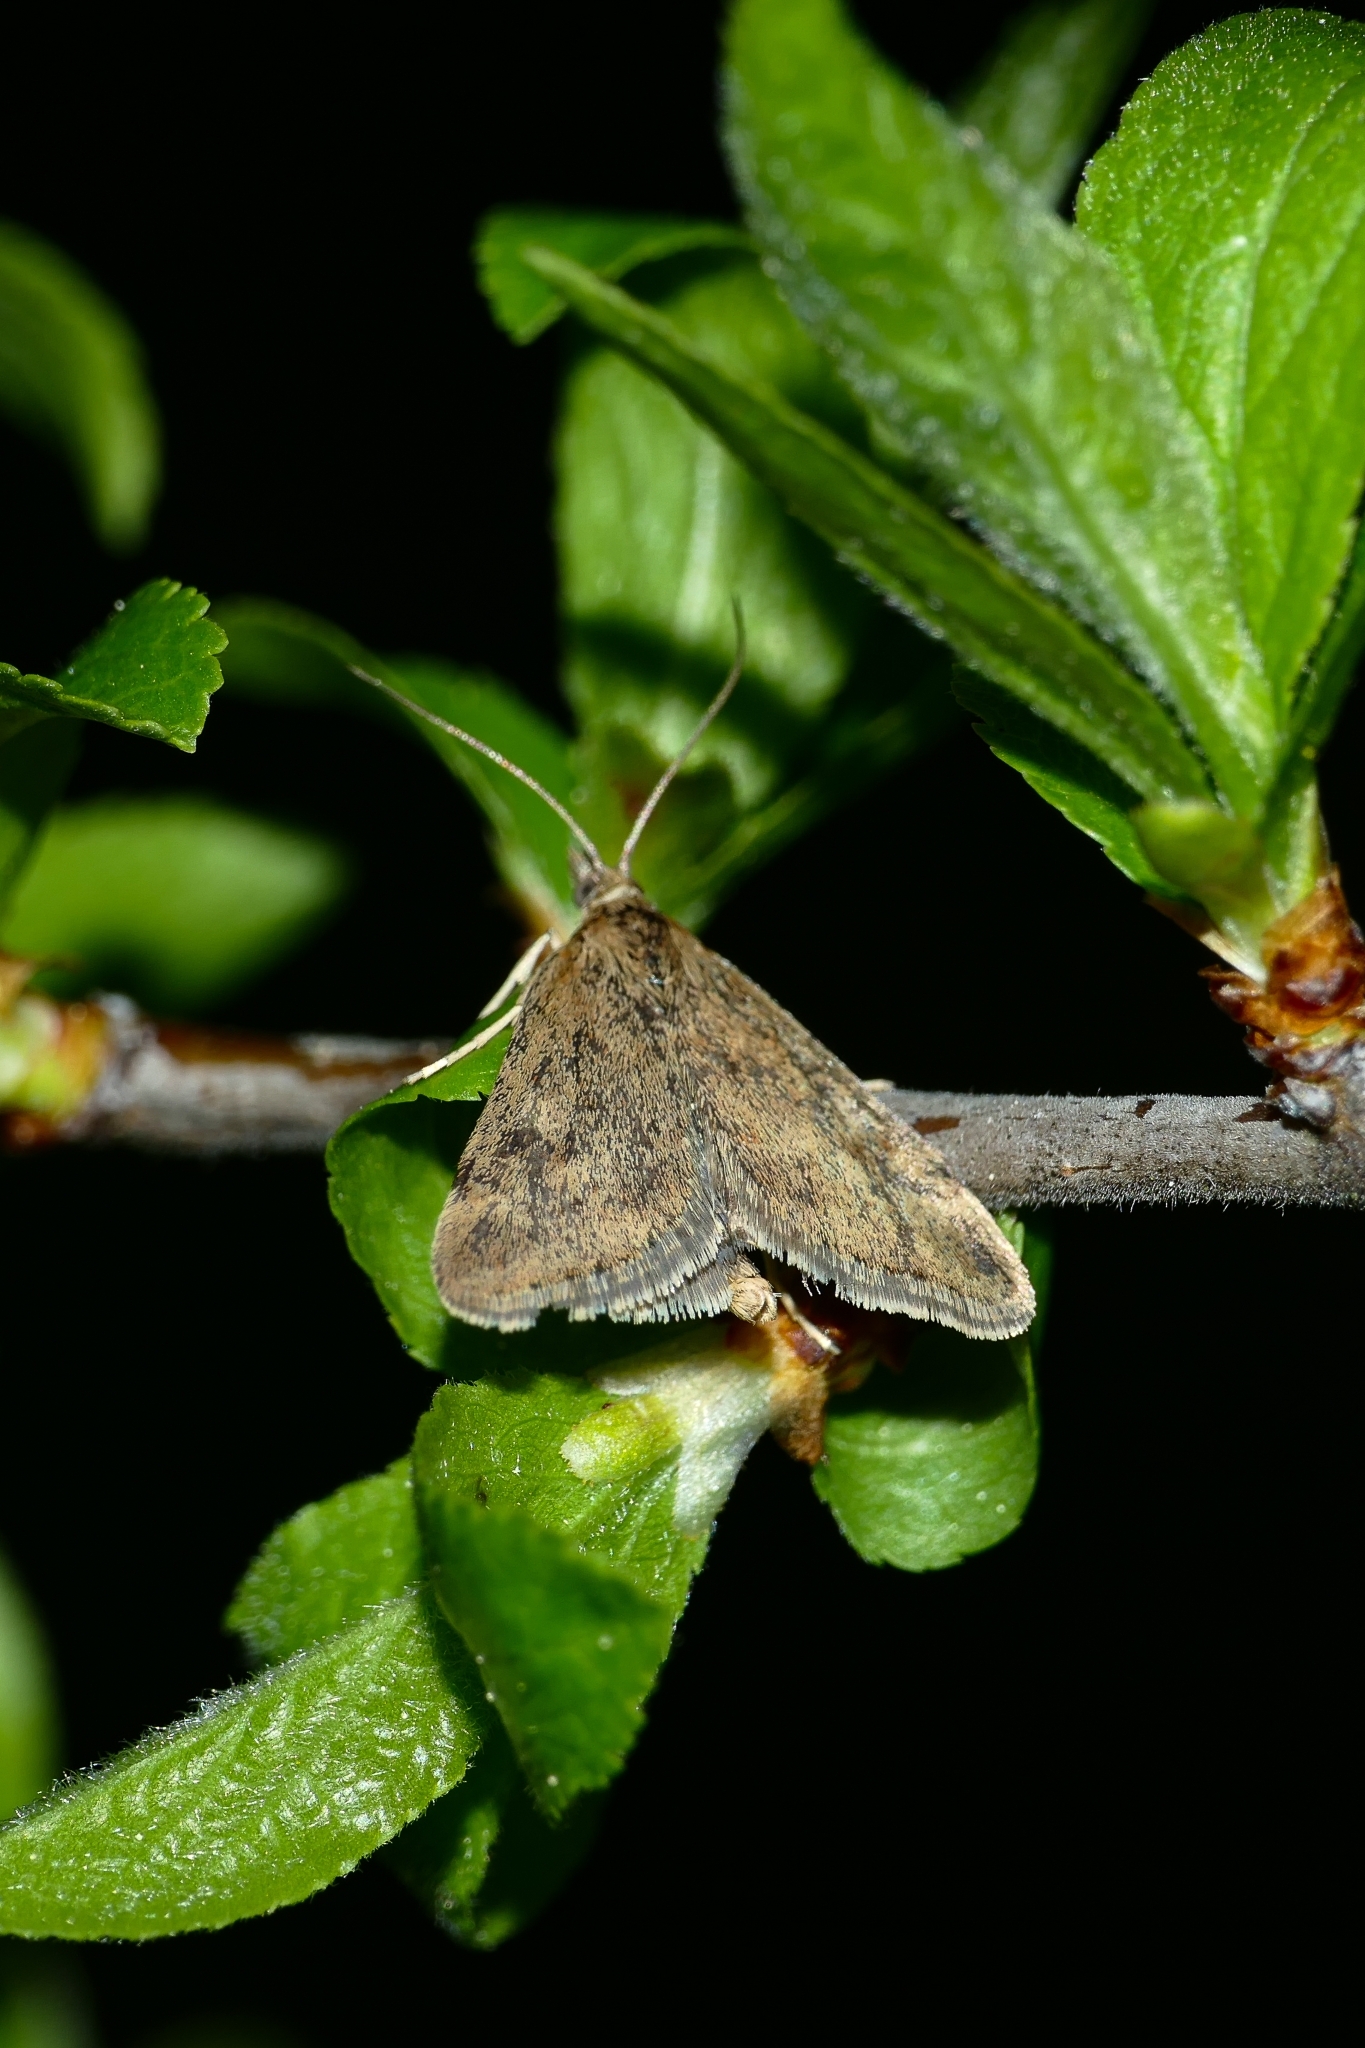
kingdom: Animalia
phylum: Arthropoda
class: Insecta
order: Lepidoptera
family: Crambidae
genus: Pyrausta
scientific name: Pyrausta despicata
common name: Straw-barred pearl
